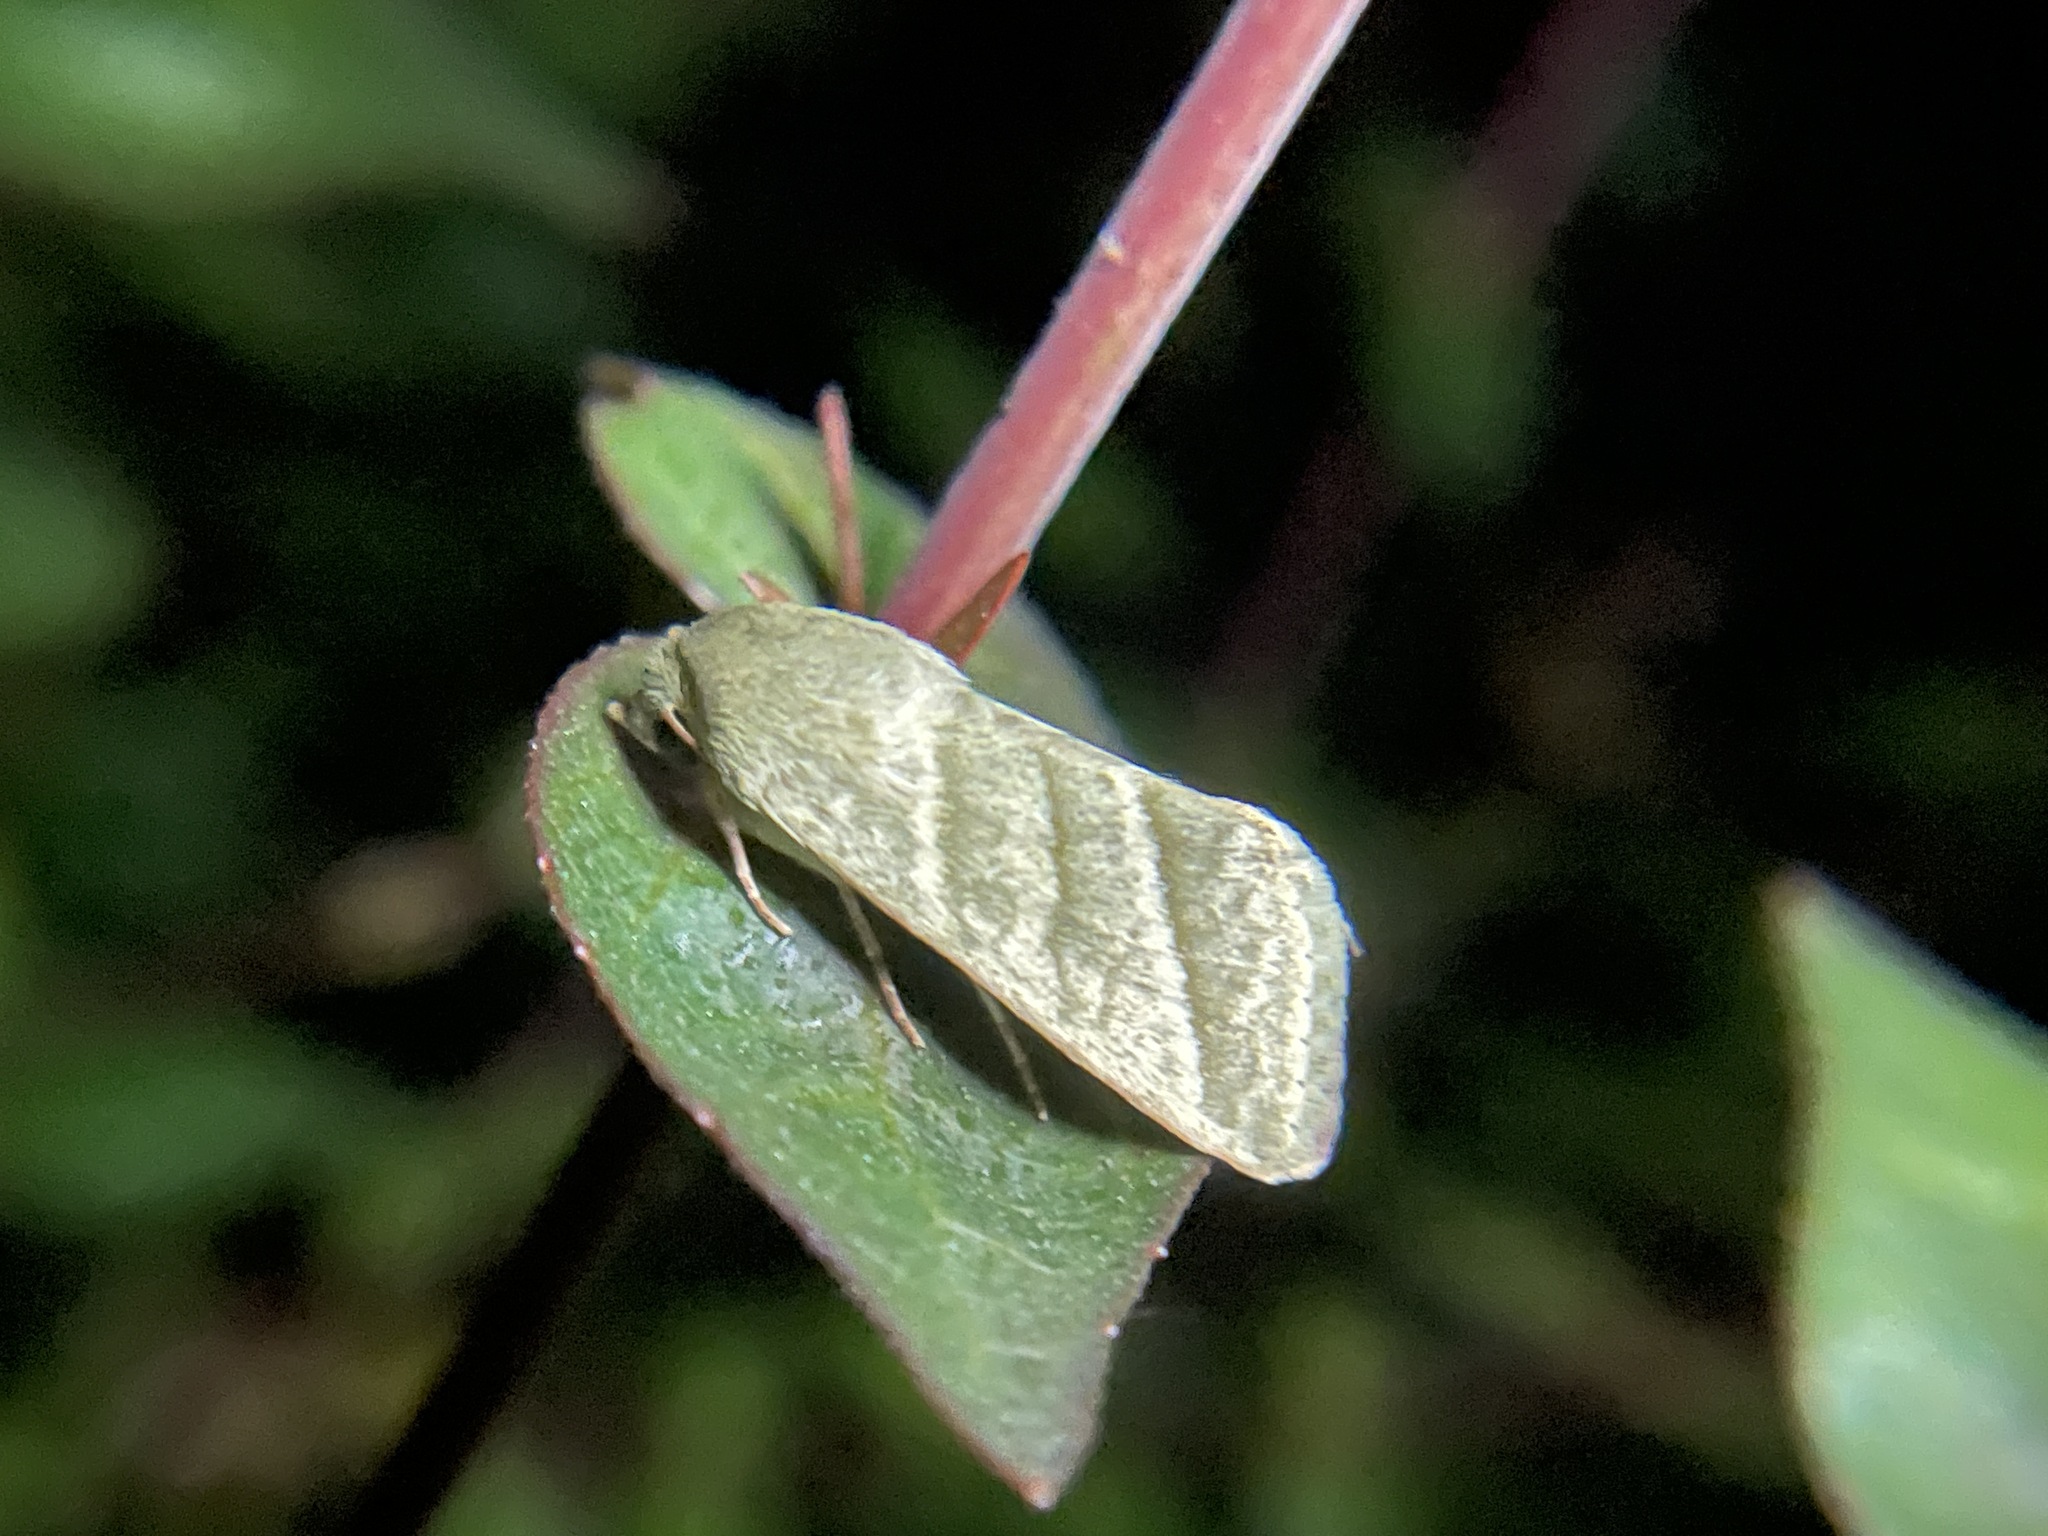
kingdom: Animalia
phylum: Arthropoda
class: Insecta
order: Lepidoptera
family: Noctuidae
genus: Chloridea
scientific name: Chloridea virescens
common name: Tobacco budworm
